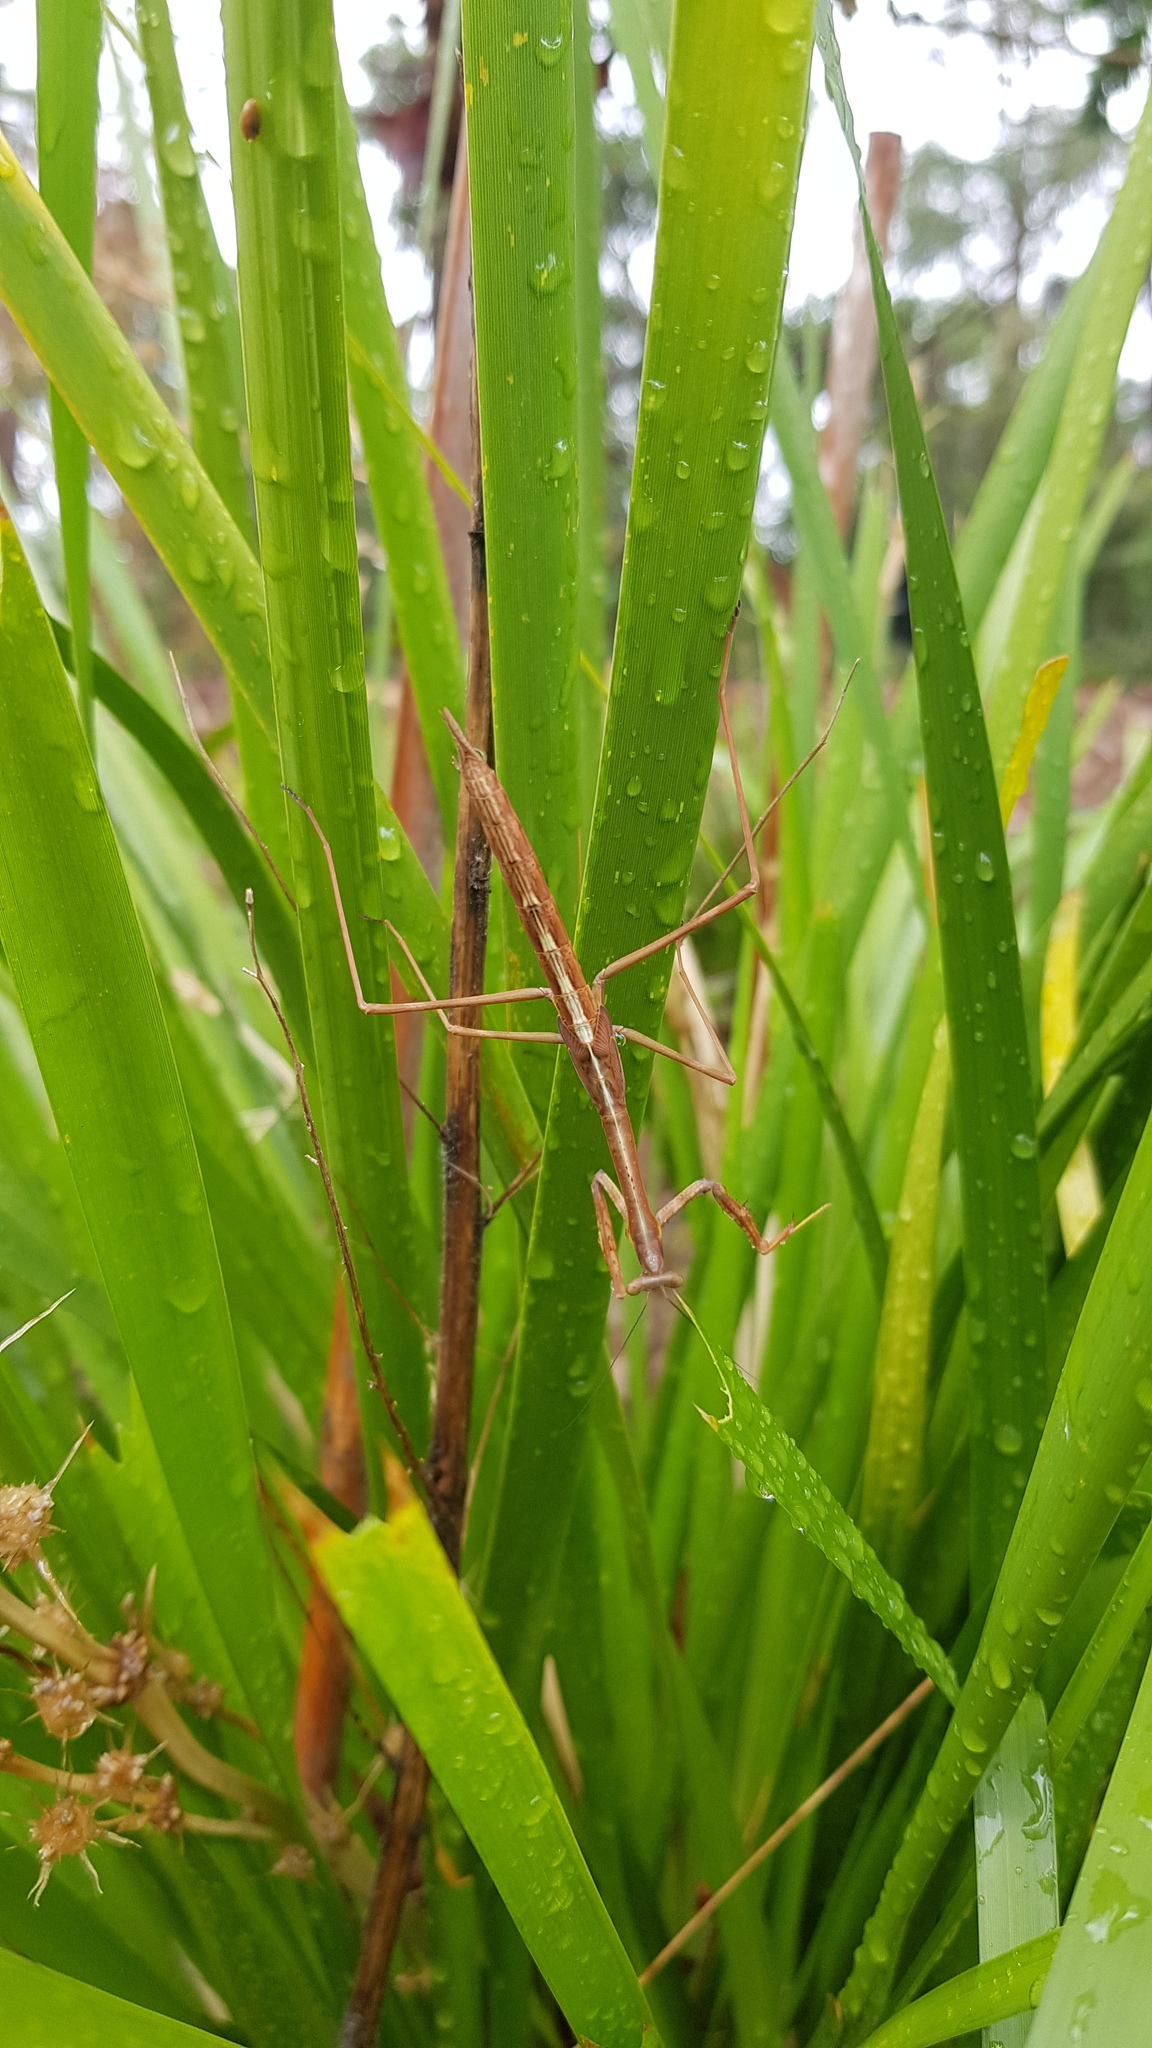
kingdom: Animalia
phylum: Arthropoda
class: Insecta
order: Mantodea
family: Mantidae
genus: Archimantis
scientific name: Archimantis latistyla
